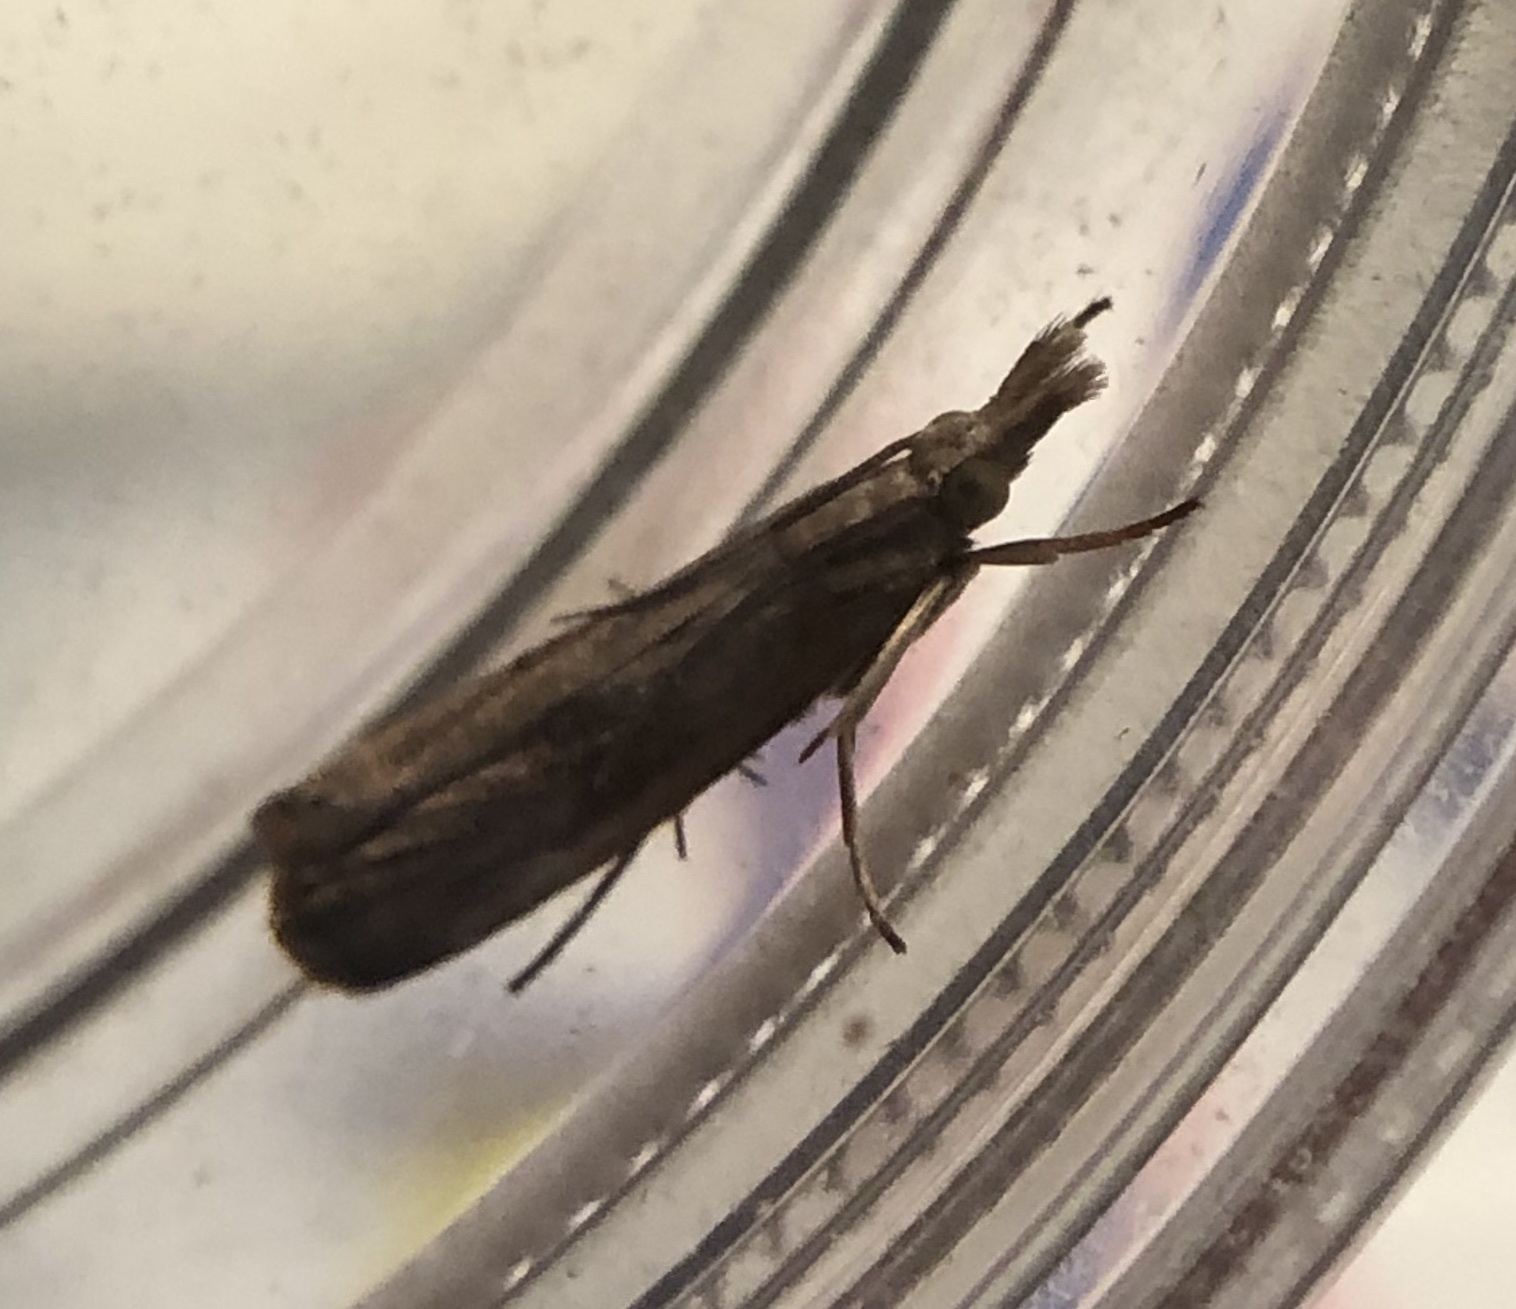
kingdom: Animalia
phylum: Arthropoda
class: Insecta
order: Lepidoptera
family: Crambidae
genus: Parapediasia
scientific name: Parapediasia teterellus
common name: Bluegrass webworm moth
